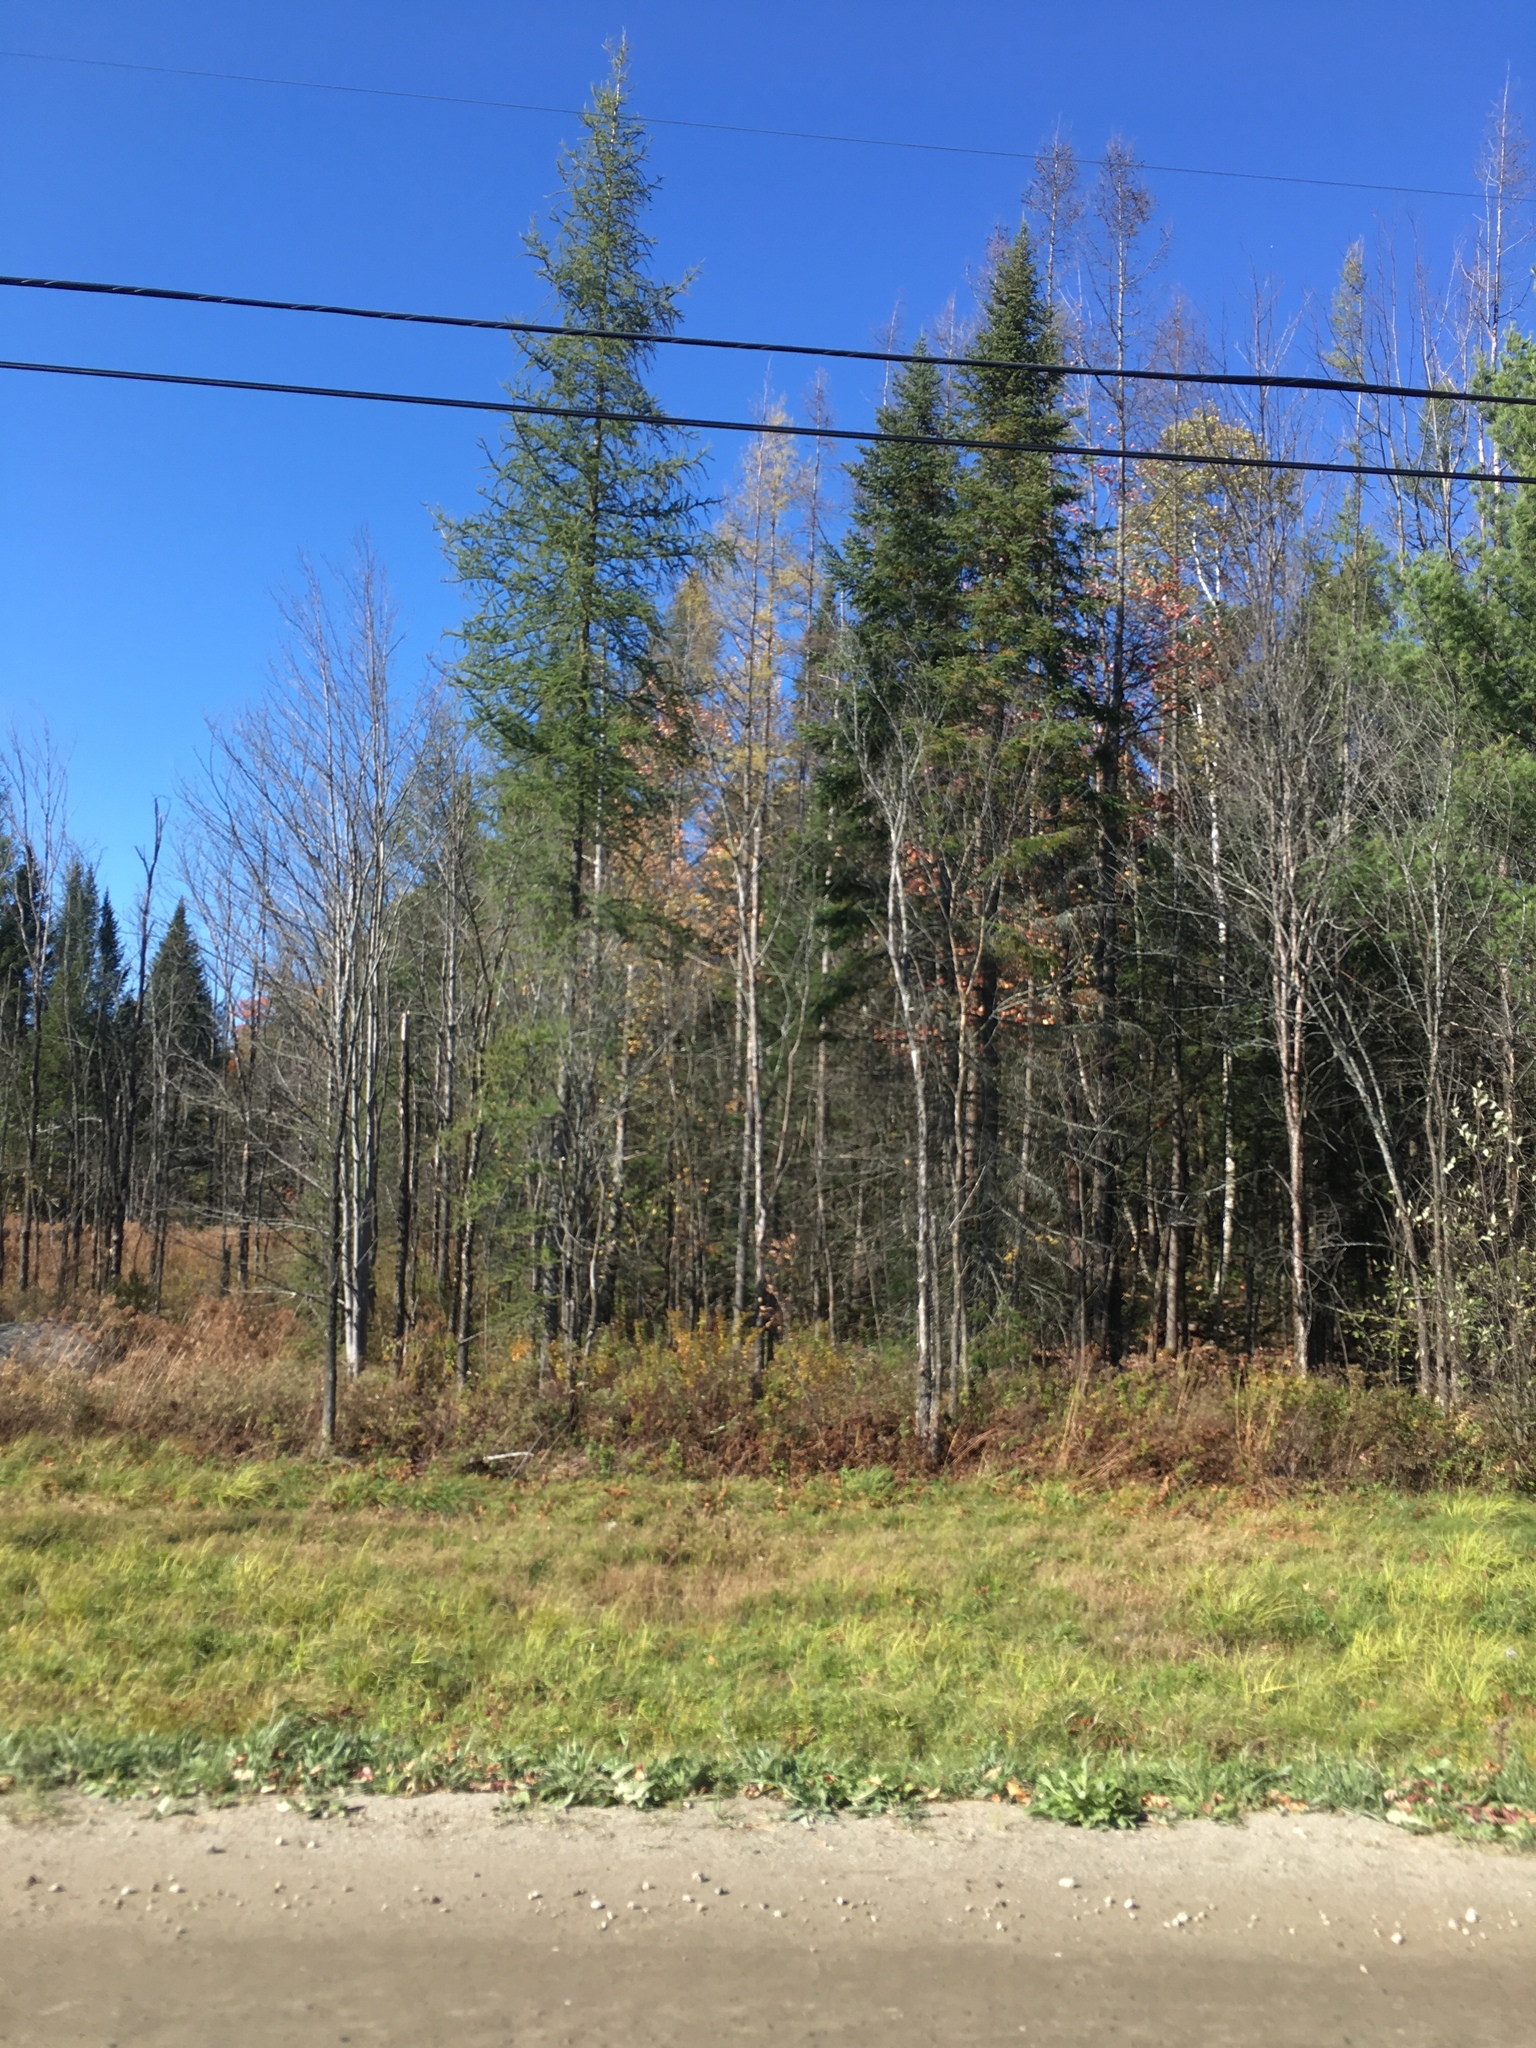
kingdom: Plantae
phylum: Tracheophyta
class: Pinopsida
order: Pinales
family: Pinaceae
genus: Larix
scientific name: Larix laricina
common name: American larch
